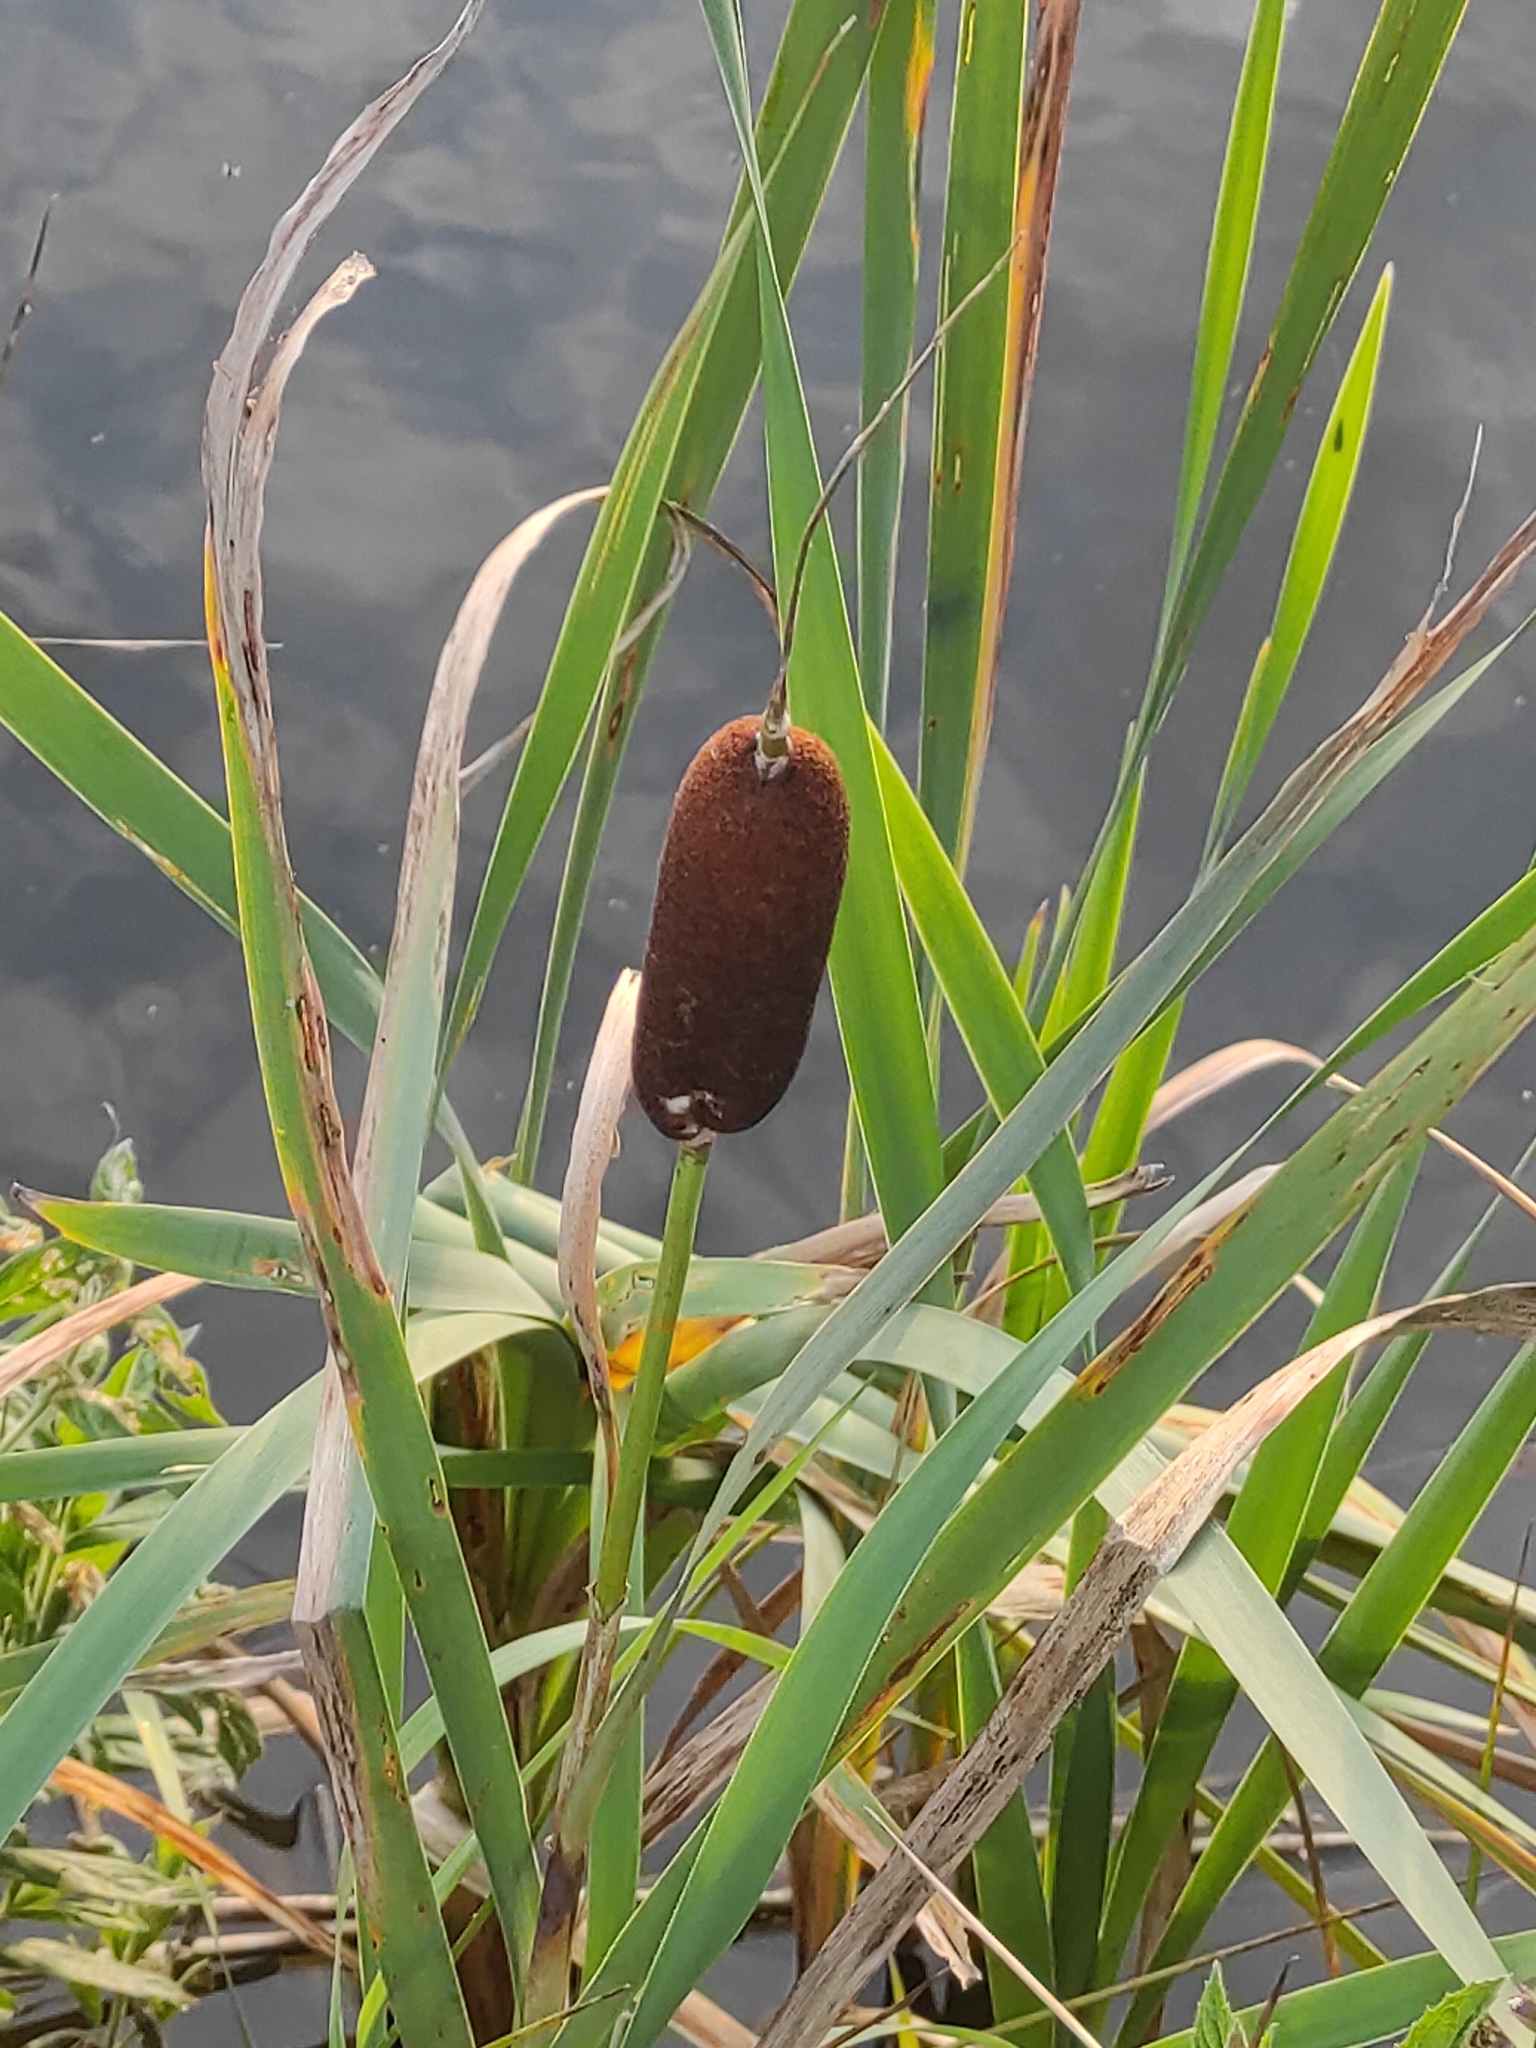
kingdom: Plantae
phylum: Tracheophyta
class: Liliopsida
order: Poales
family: Typhaceae
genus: Typha
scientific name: Typha latifolia
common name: Broadleaf cattail
